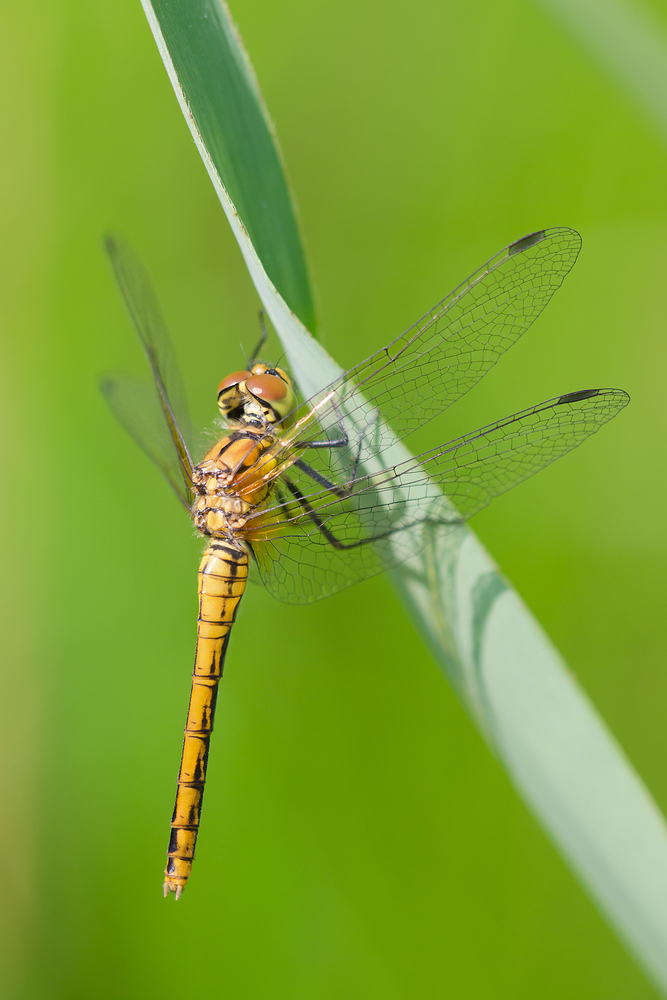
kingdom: Animalia
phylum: Arthropoda
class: Insecta
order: Odonata
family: Libellulidae
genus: Sympetrum
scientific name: Sympetrum sanguineum
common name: Ruddy darter
